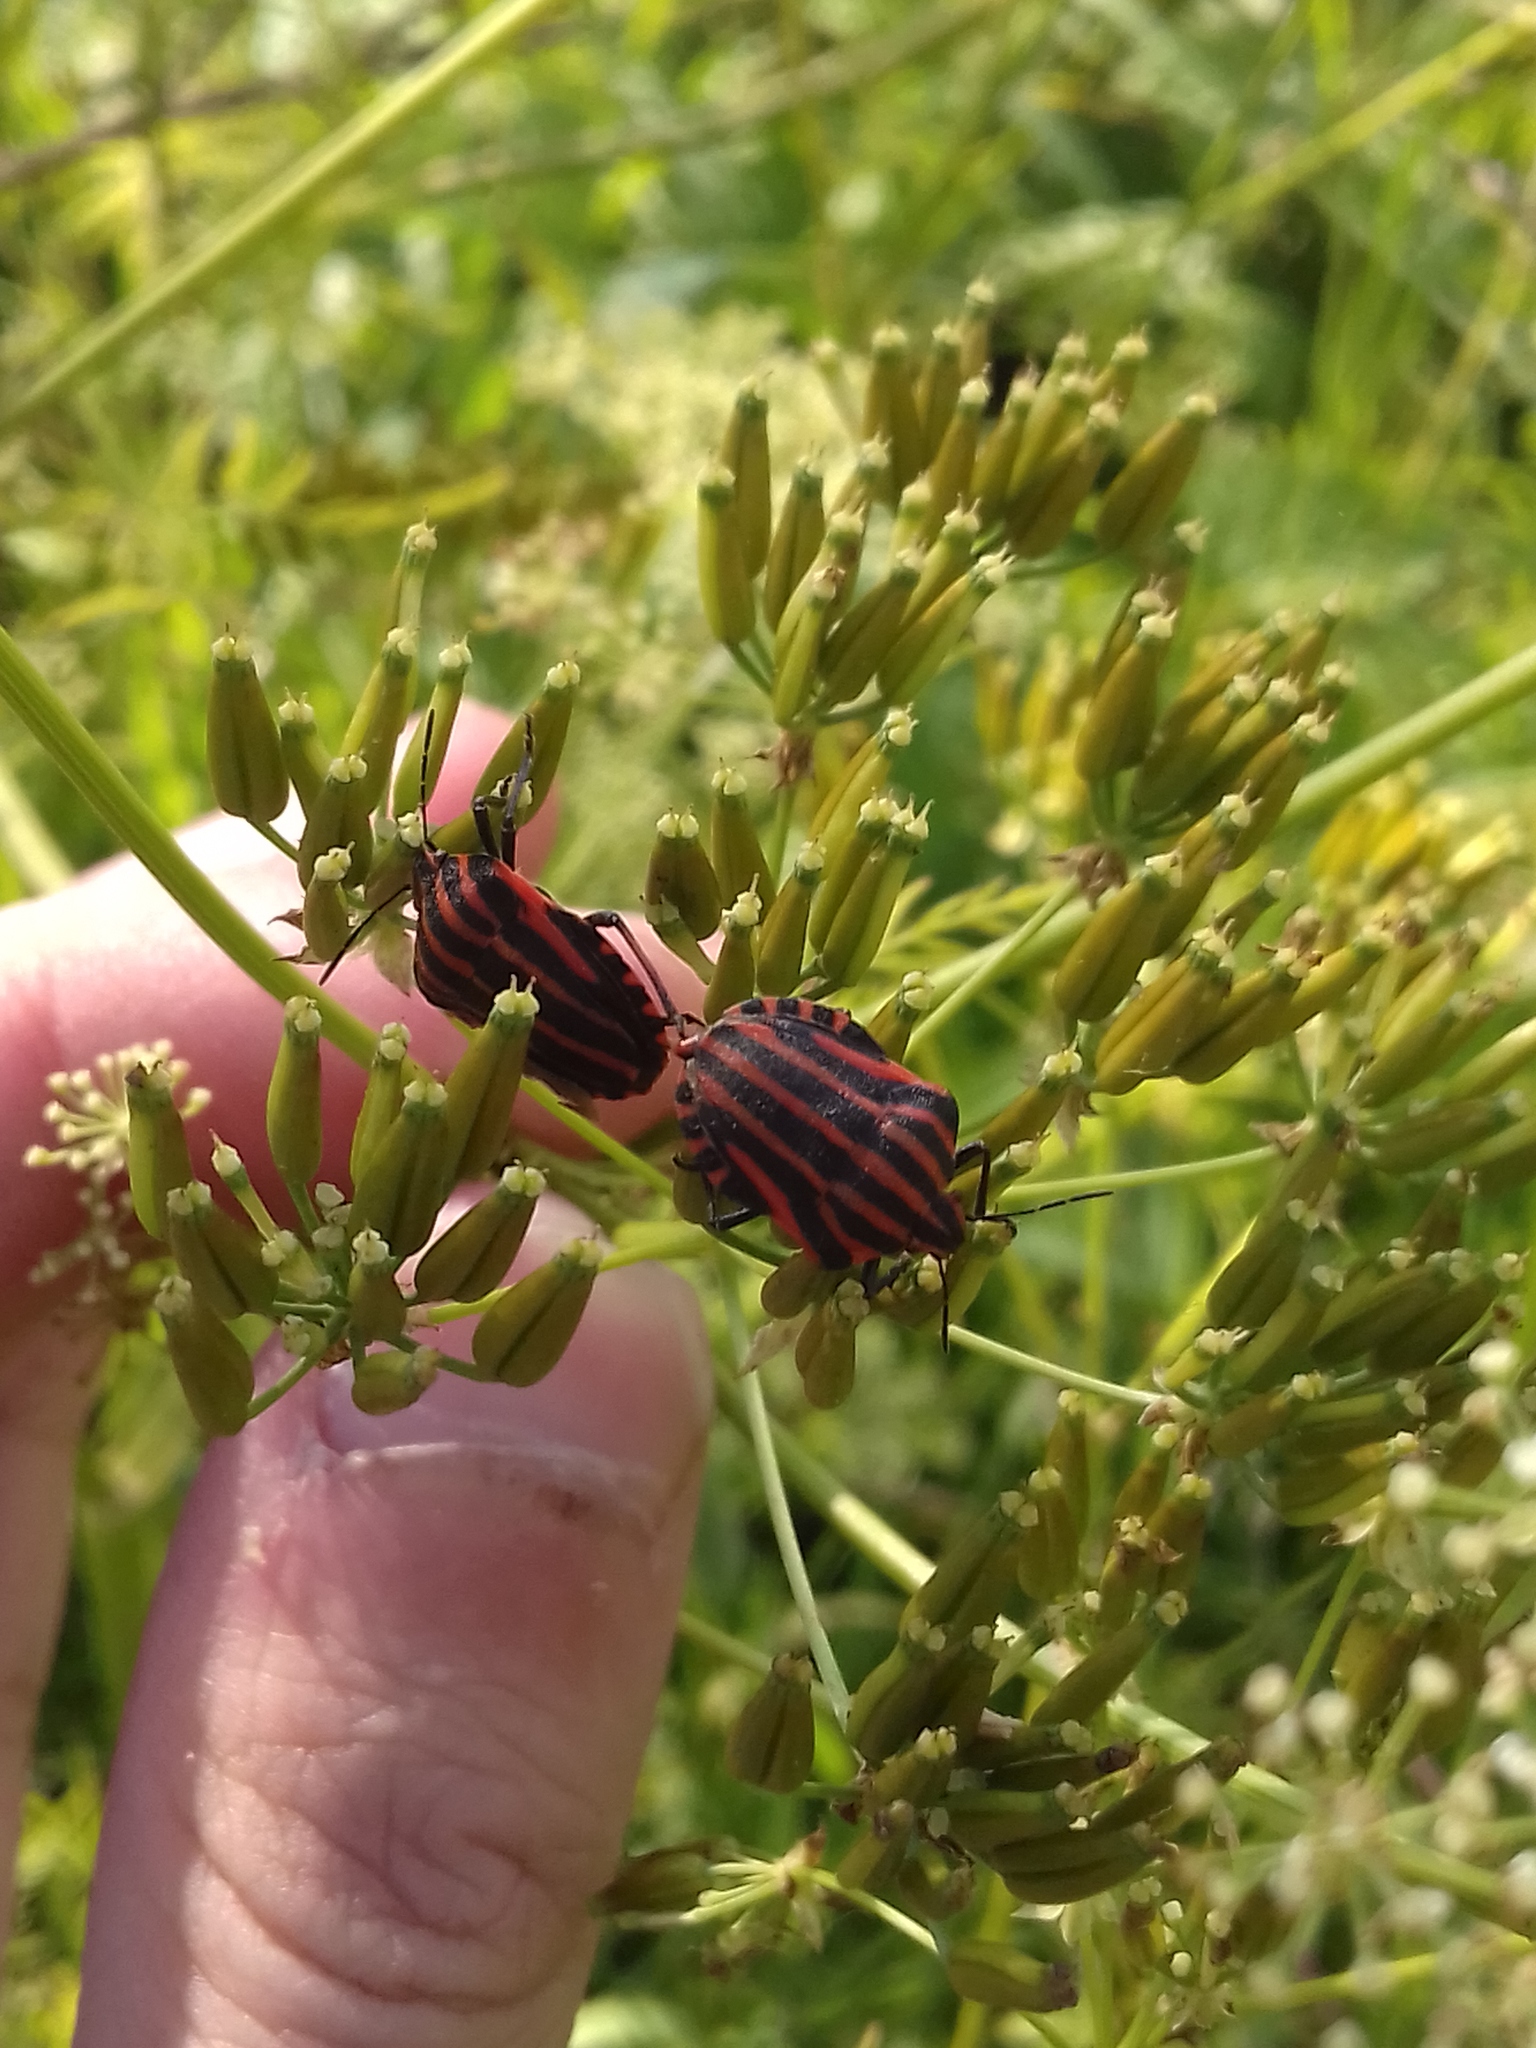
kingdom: Animalia
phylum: Arthropoda
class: Insecta
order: Hemiptera
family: Pentatomidae
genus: Graphosoma
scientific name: Graphosoma italicum
